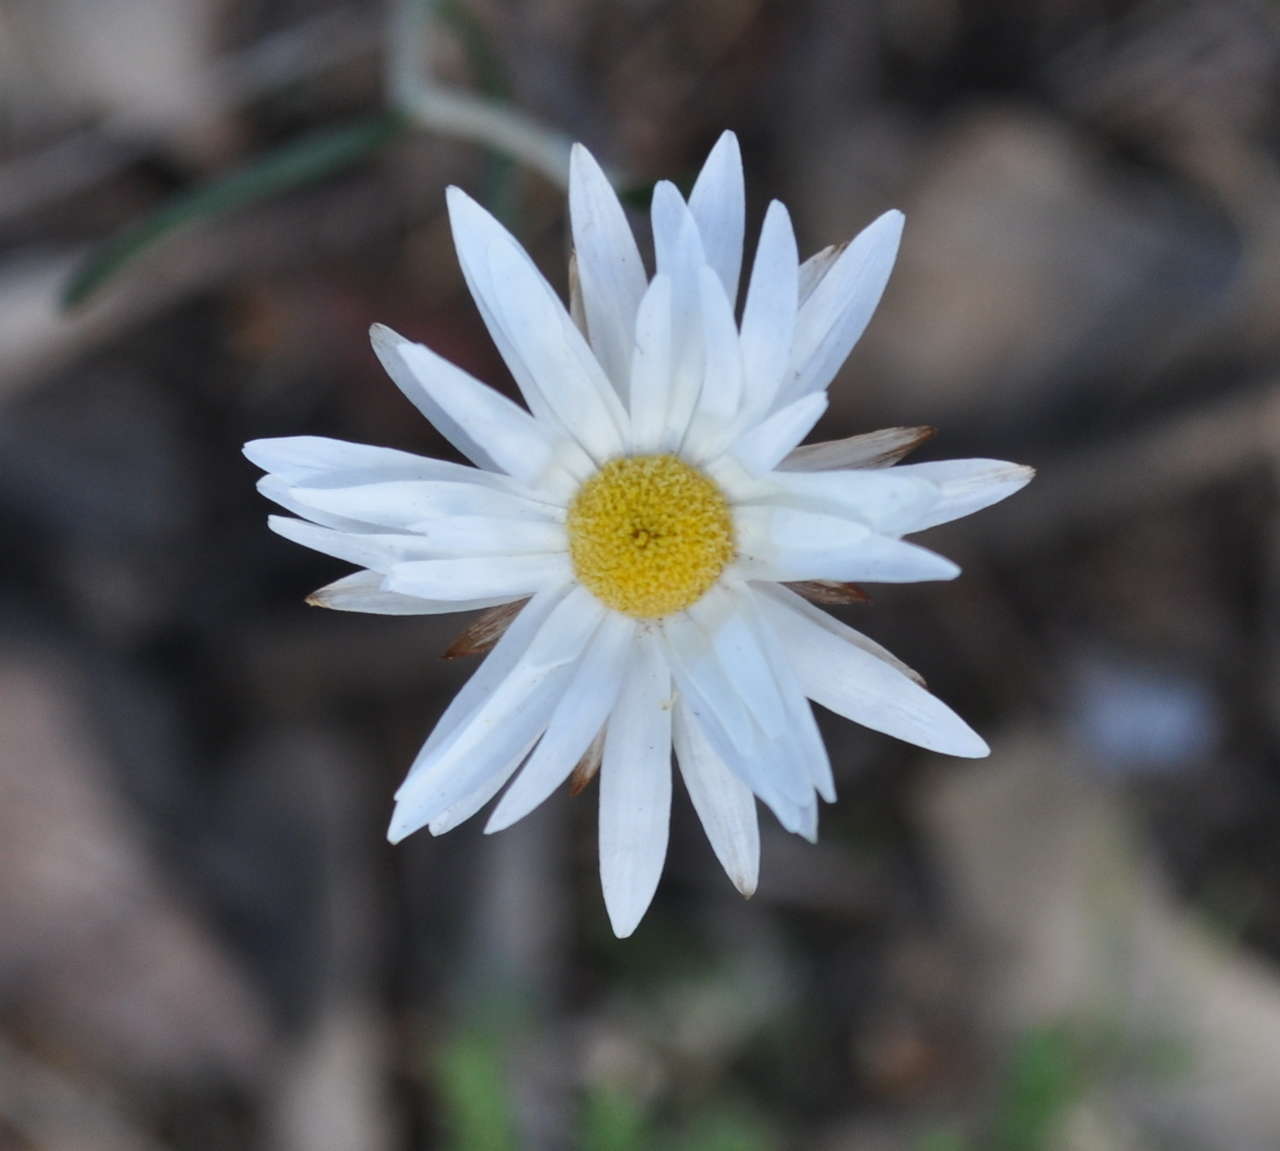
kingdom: Plantae
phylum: Tracheophyta
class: Magnoliopsida
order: Asterales
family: Asteraceae
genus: Argentipallium
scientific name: Argentipallium obtusifolium
